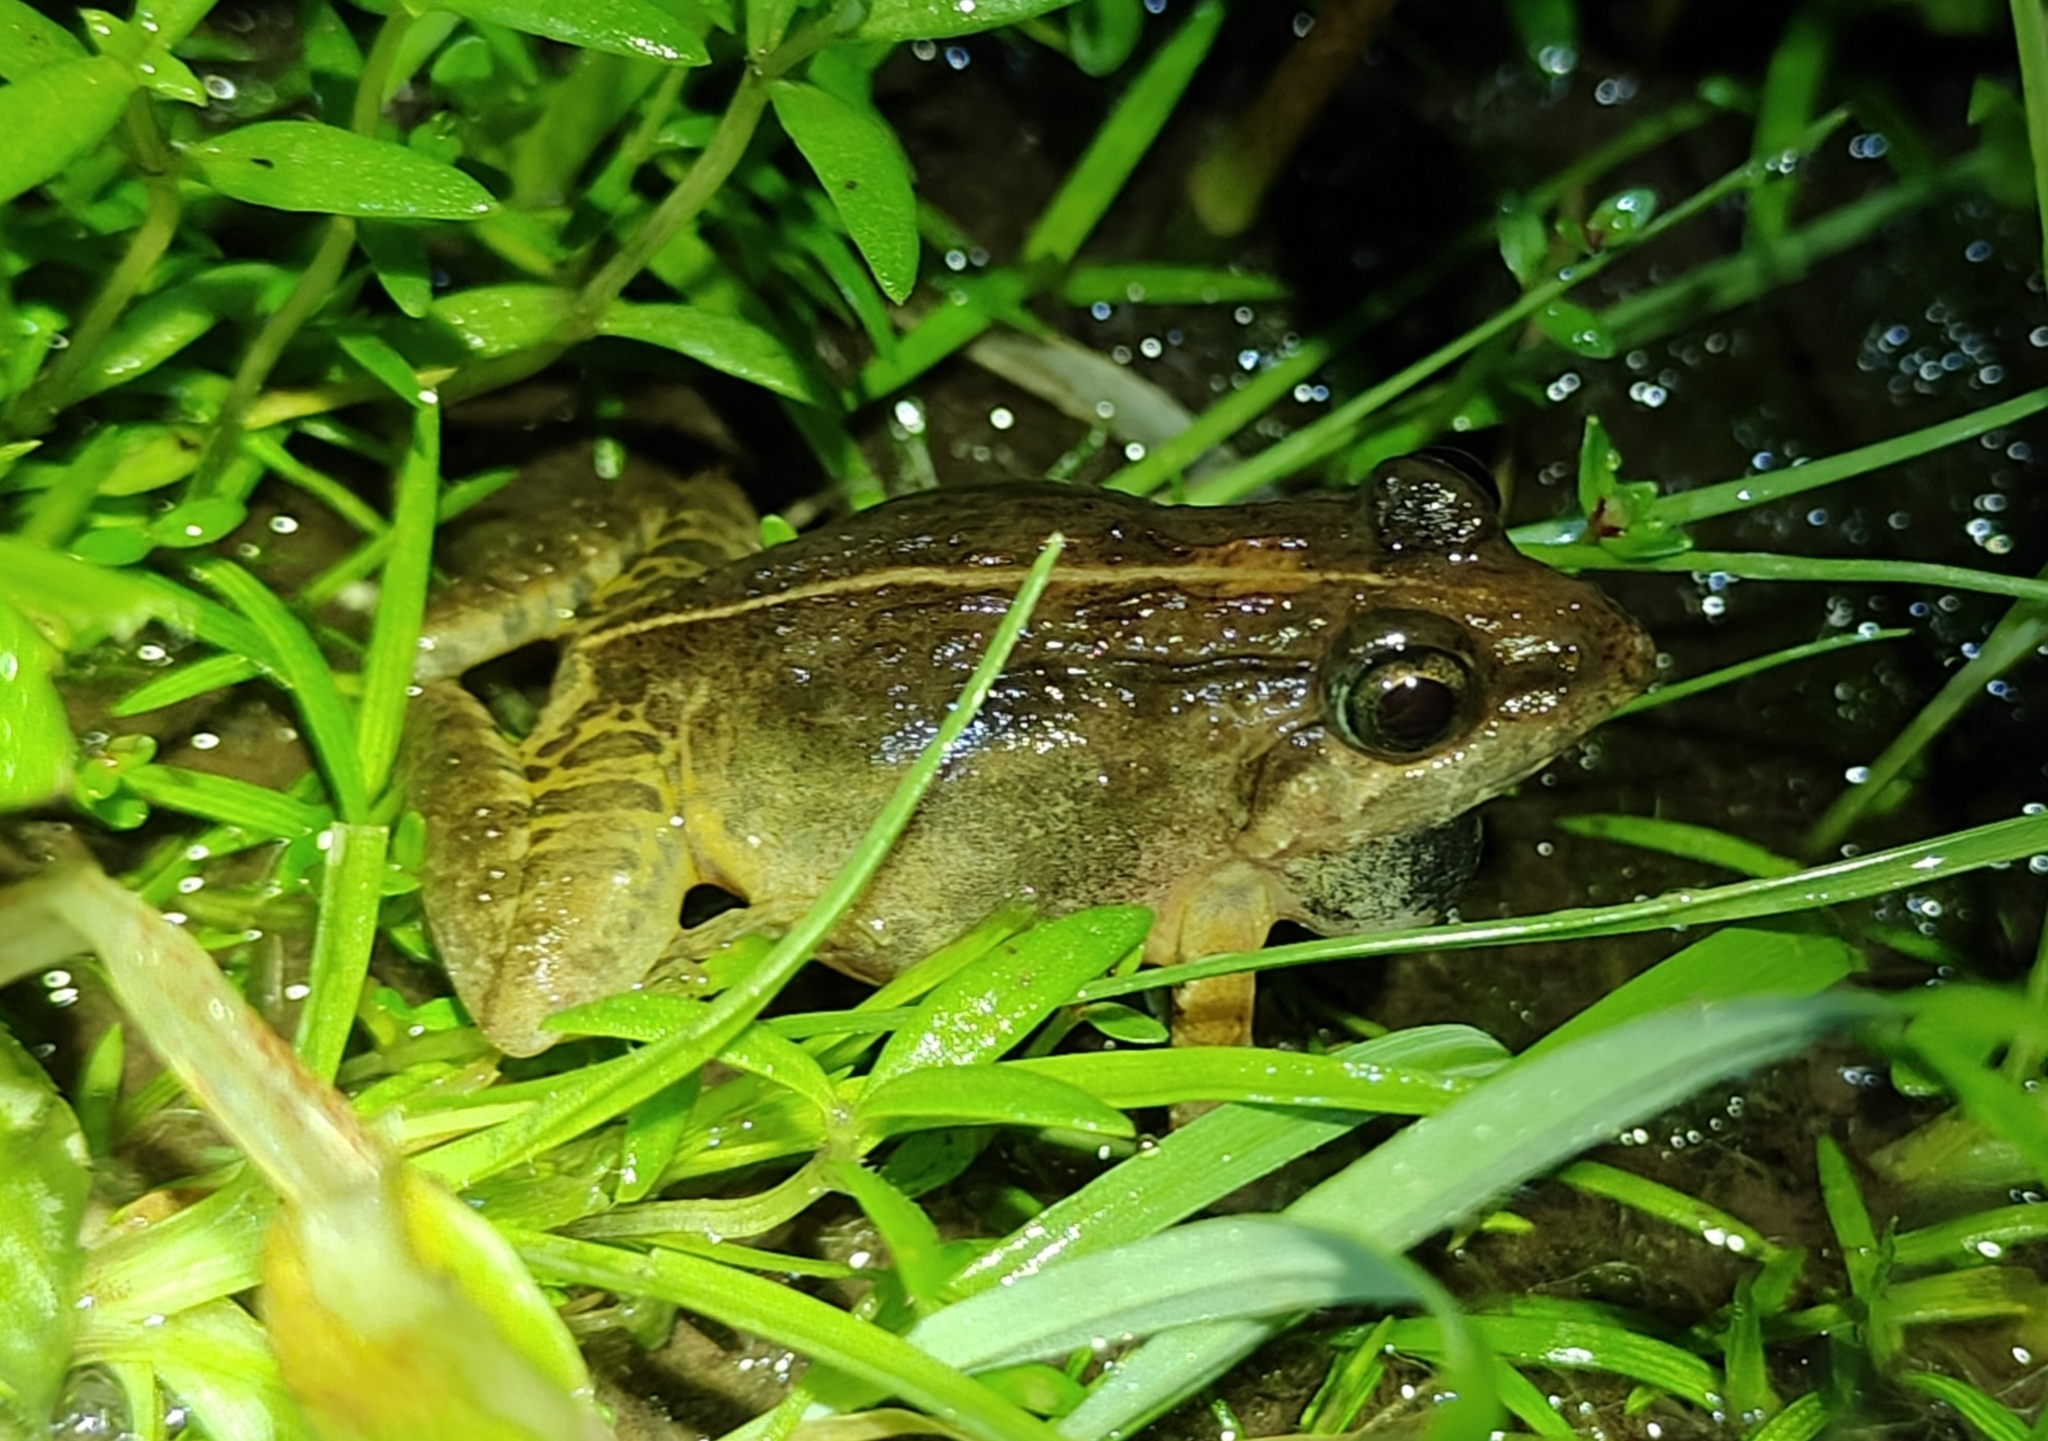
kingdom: Animalia
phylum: Chordata
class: Amphibia
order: Anura
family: Dicroglossidae
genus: Minervarya
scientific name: Minervarya syhadrensis
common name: Bombay wart frog
